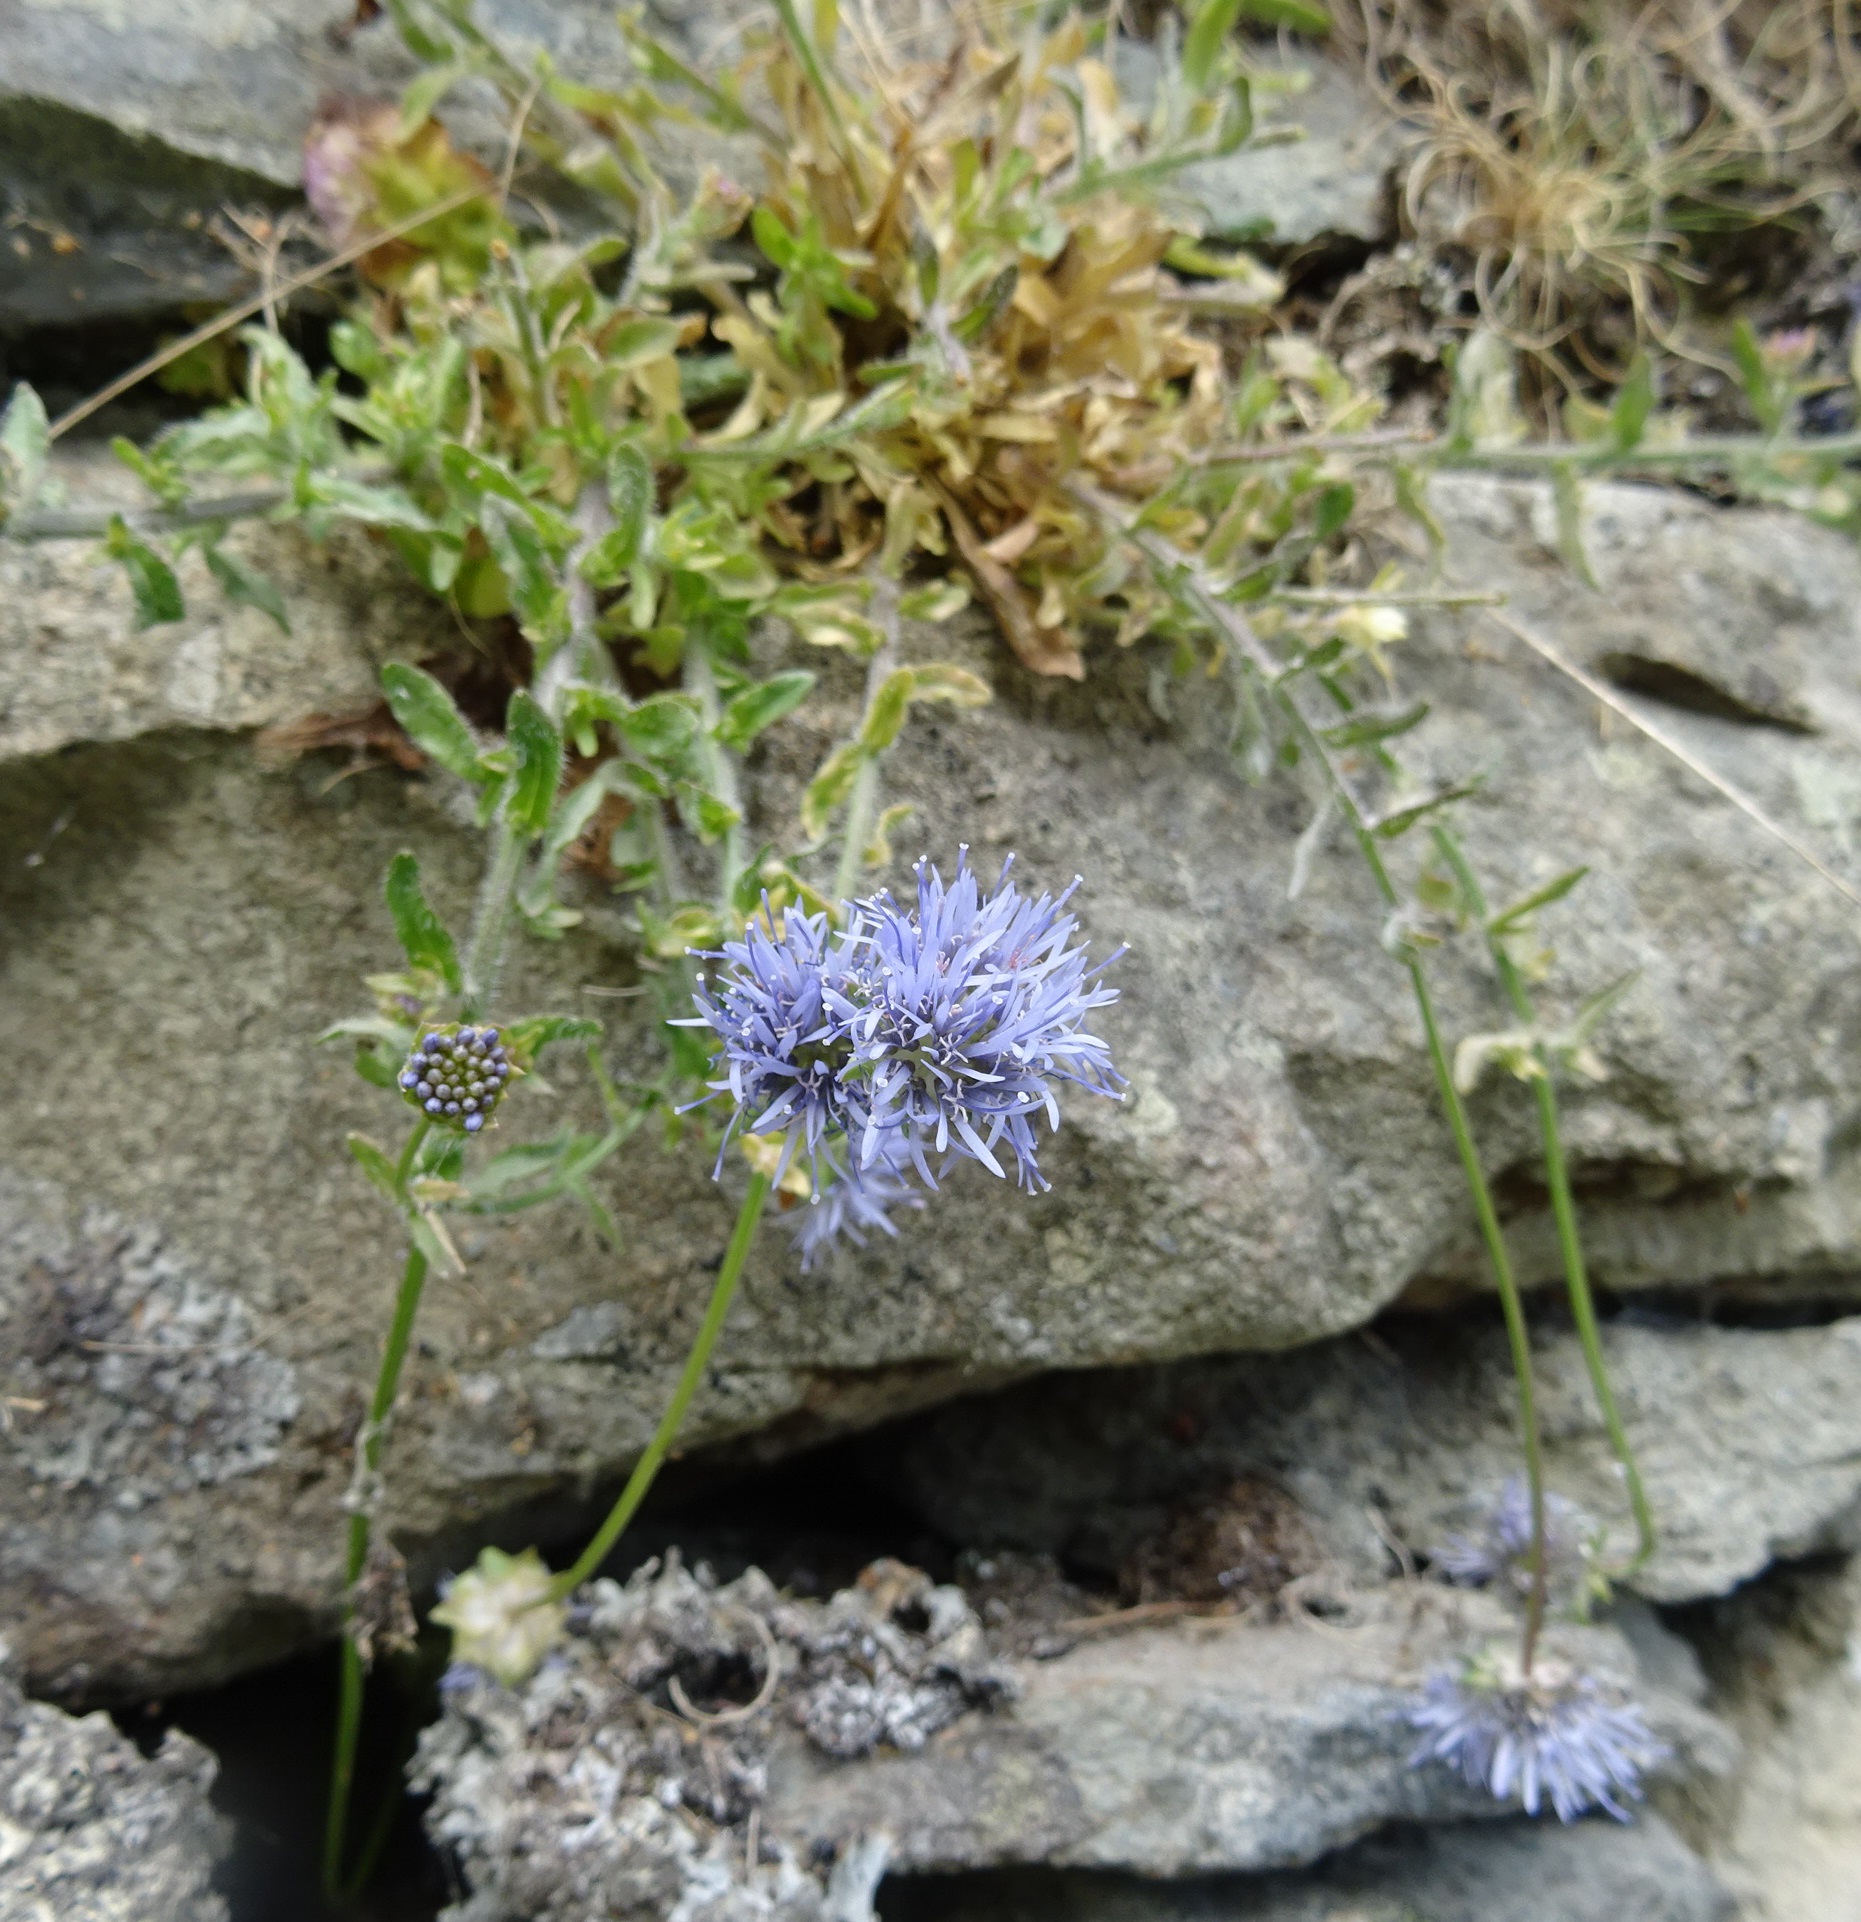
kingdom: Plantae
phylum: Tracheophyta
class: Magnoliopsida
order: Asterales
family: Campanulaceae
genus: Jasione
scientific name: Jasione montana
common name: Sheep's-bit
